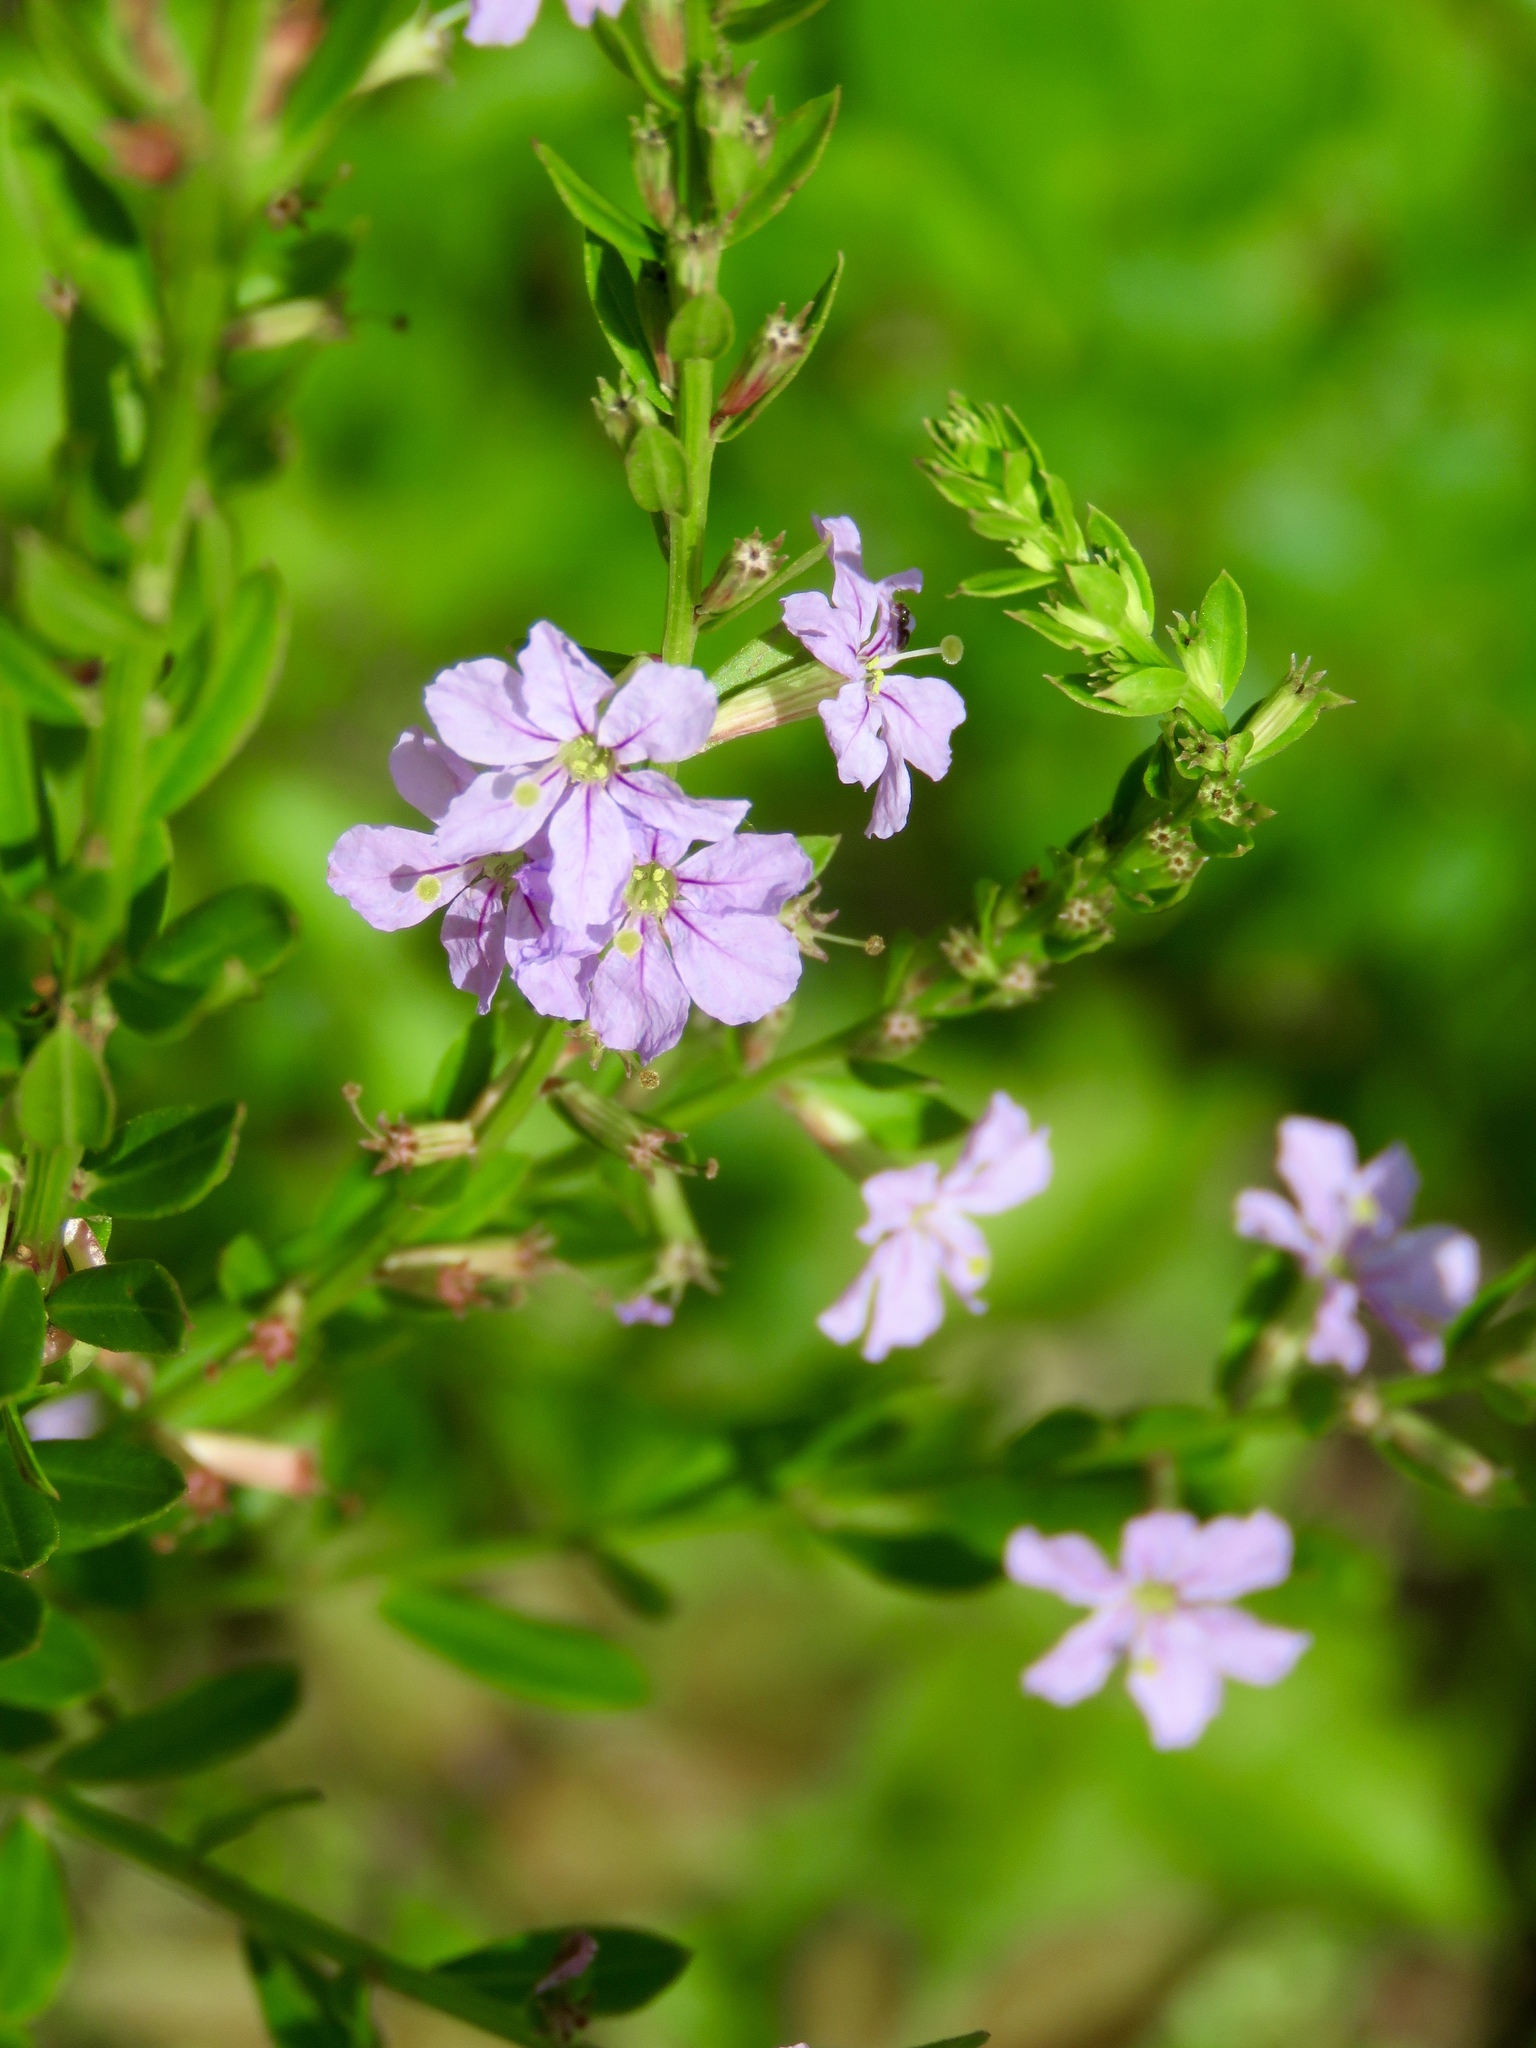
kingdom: Plantae
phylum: Tracheophyta
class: Magnoliopsida
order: Myrtales
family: Lythraceae
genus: Lythrum
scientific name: Lythrum alatum
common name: Winged loosestrife
